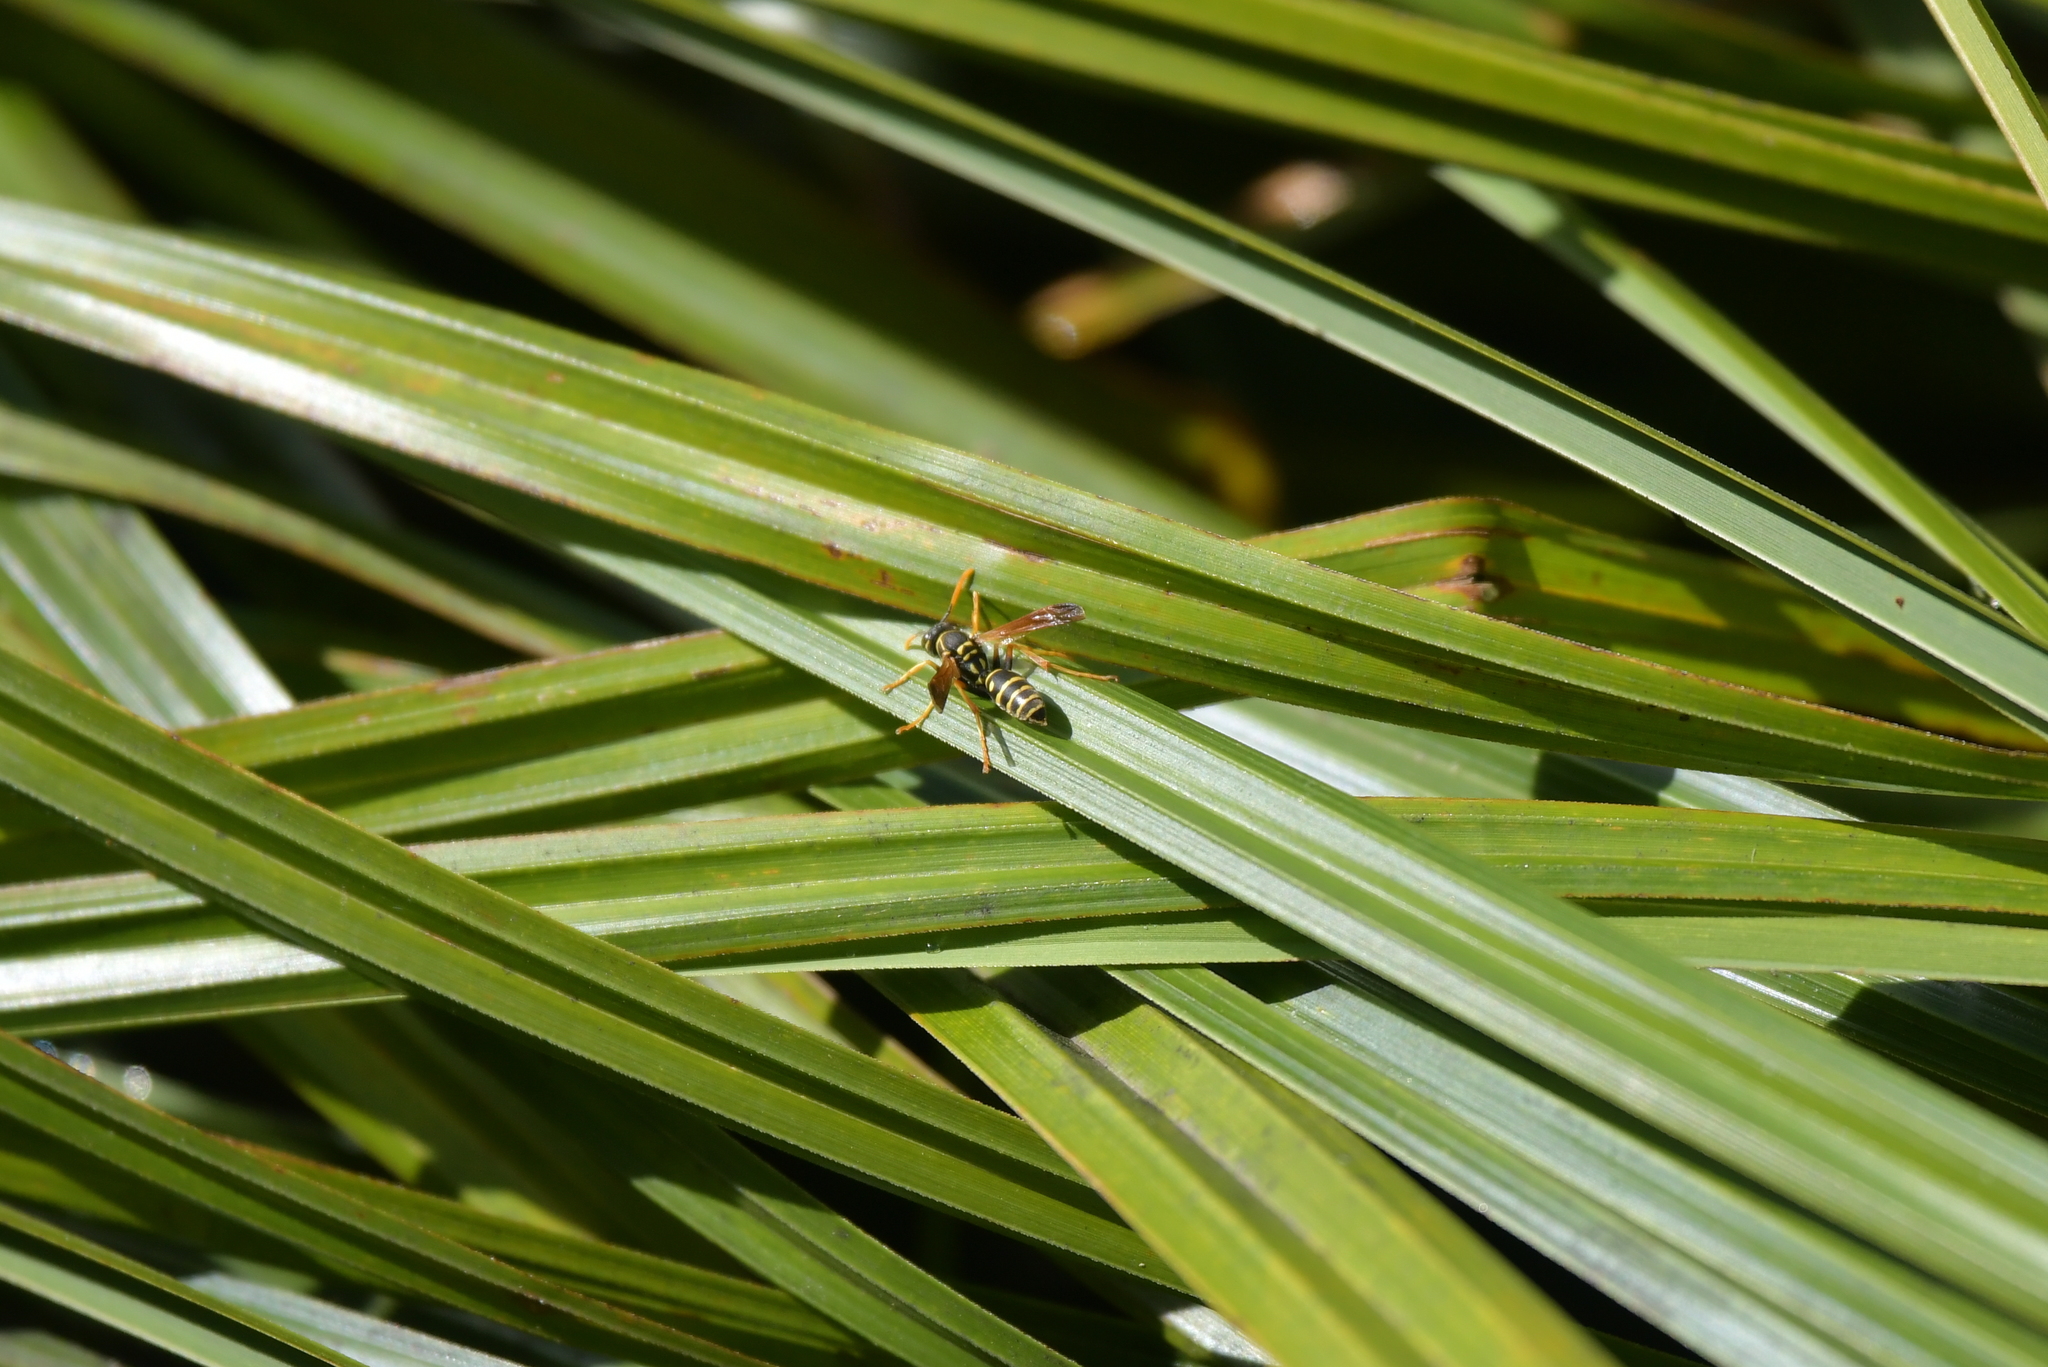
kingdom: Animalia
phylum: Arthropoda
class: Insecta
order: Hymenoptera
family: Eumenidae
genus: Polistes
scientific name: Polistes chinensis
